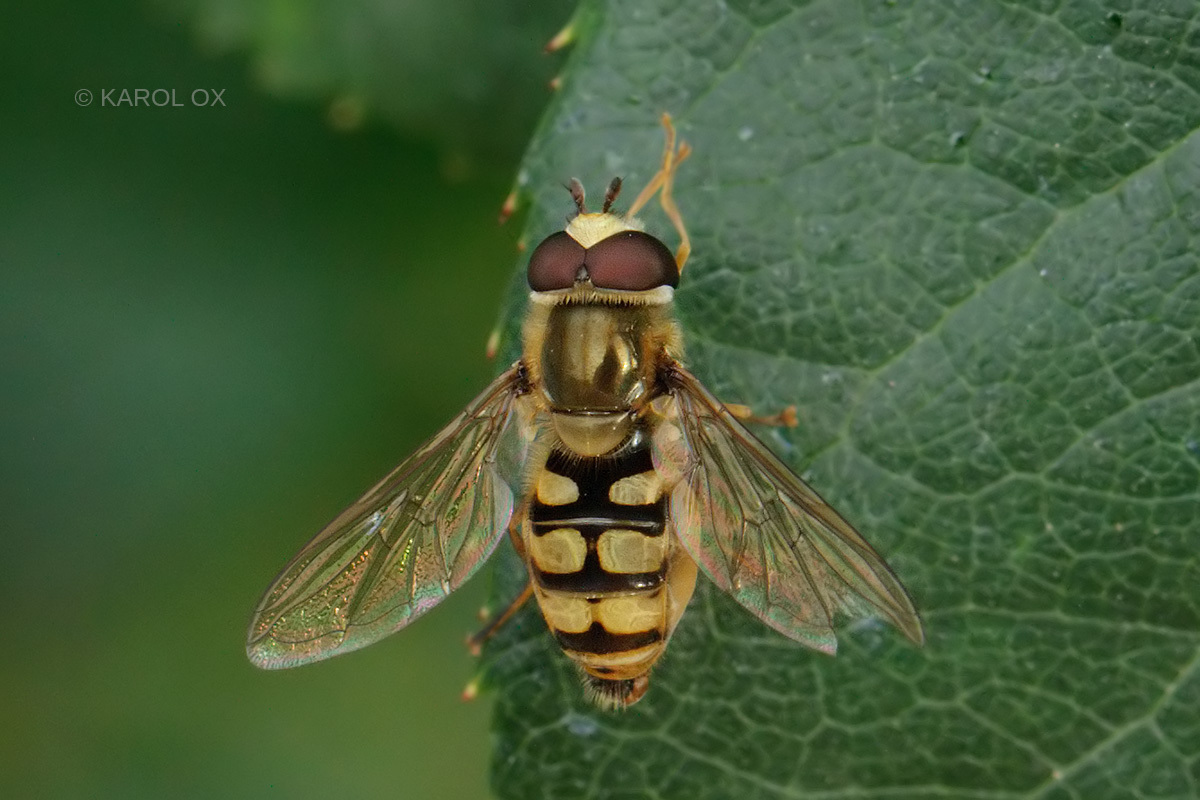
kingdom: Animalia
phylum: Arthropoda
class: Insecta
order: Diptera
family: Syrphidae
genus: Eupeodes
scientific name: Eupeodes corollae
